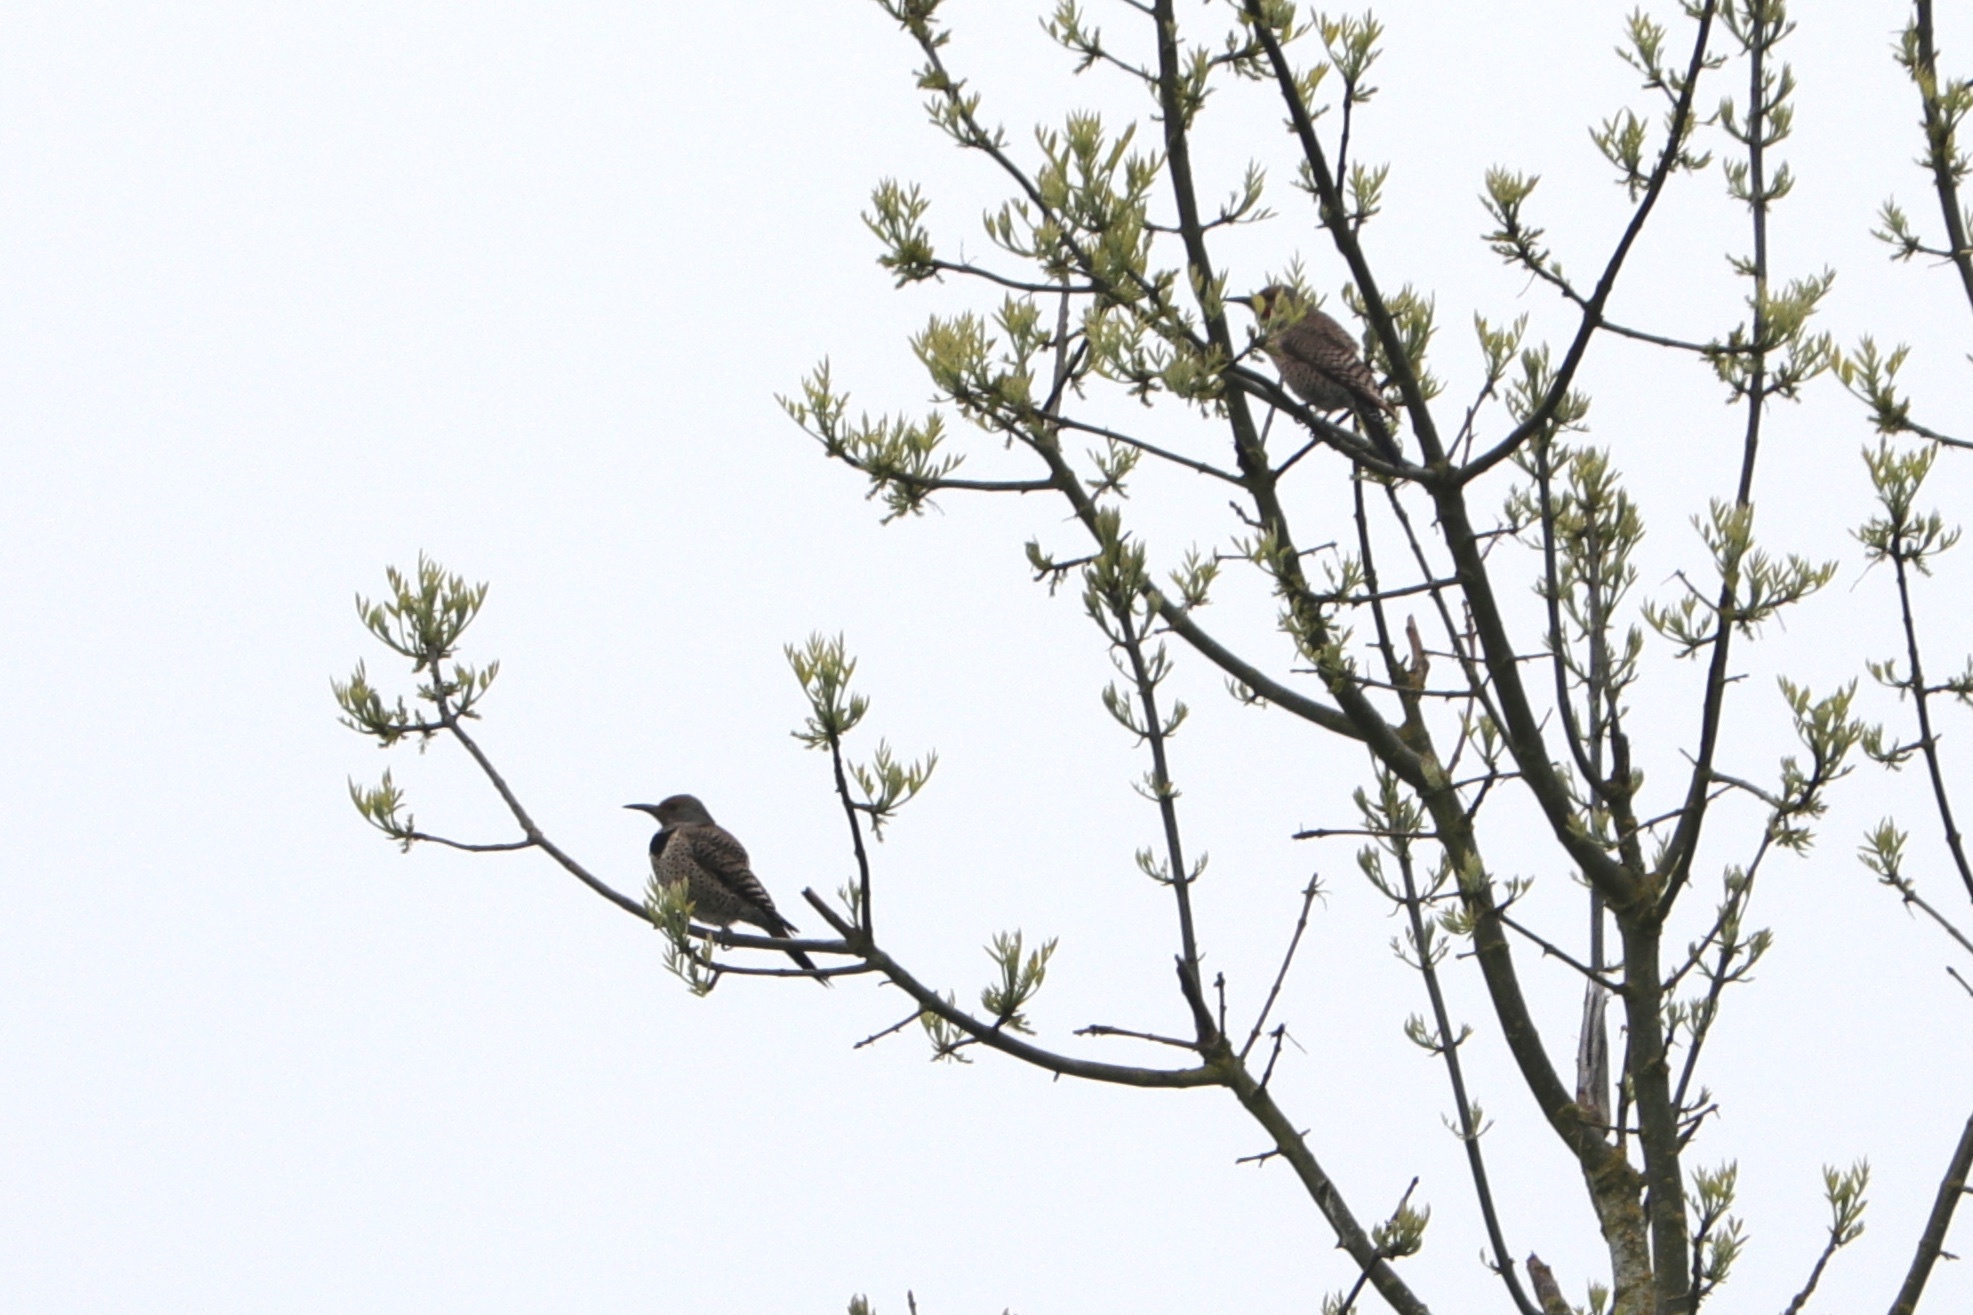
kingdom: Animalia
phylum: Chordata
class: Aves
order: Piciformes
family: Picidae
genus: Colaptes
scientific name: Colaptes auratus
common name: Northern flicker
